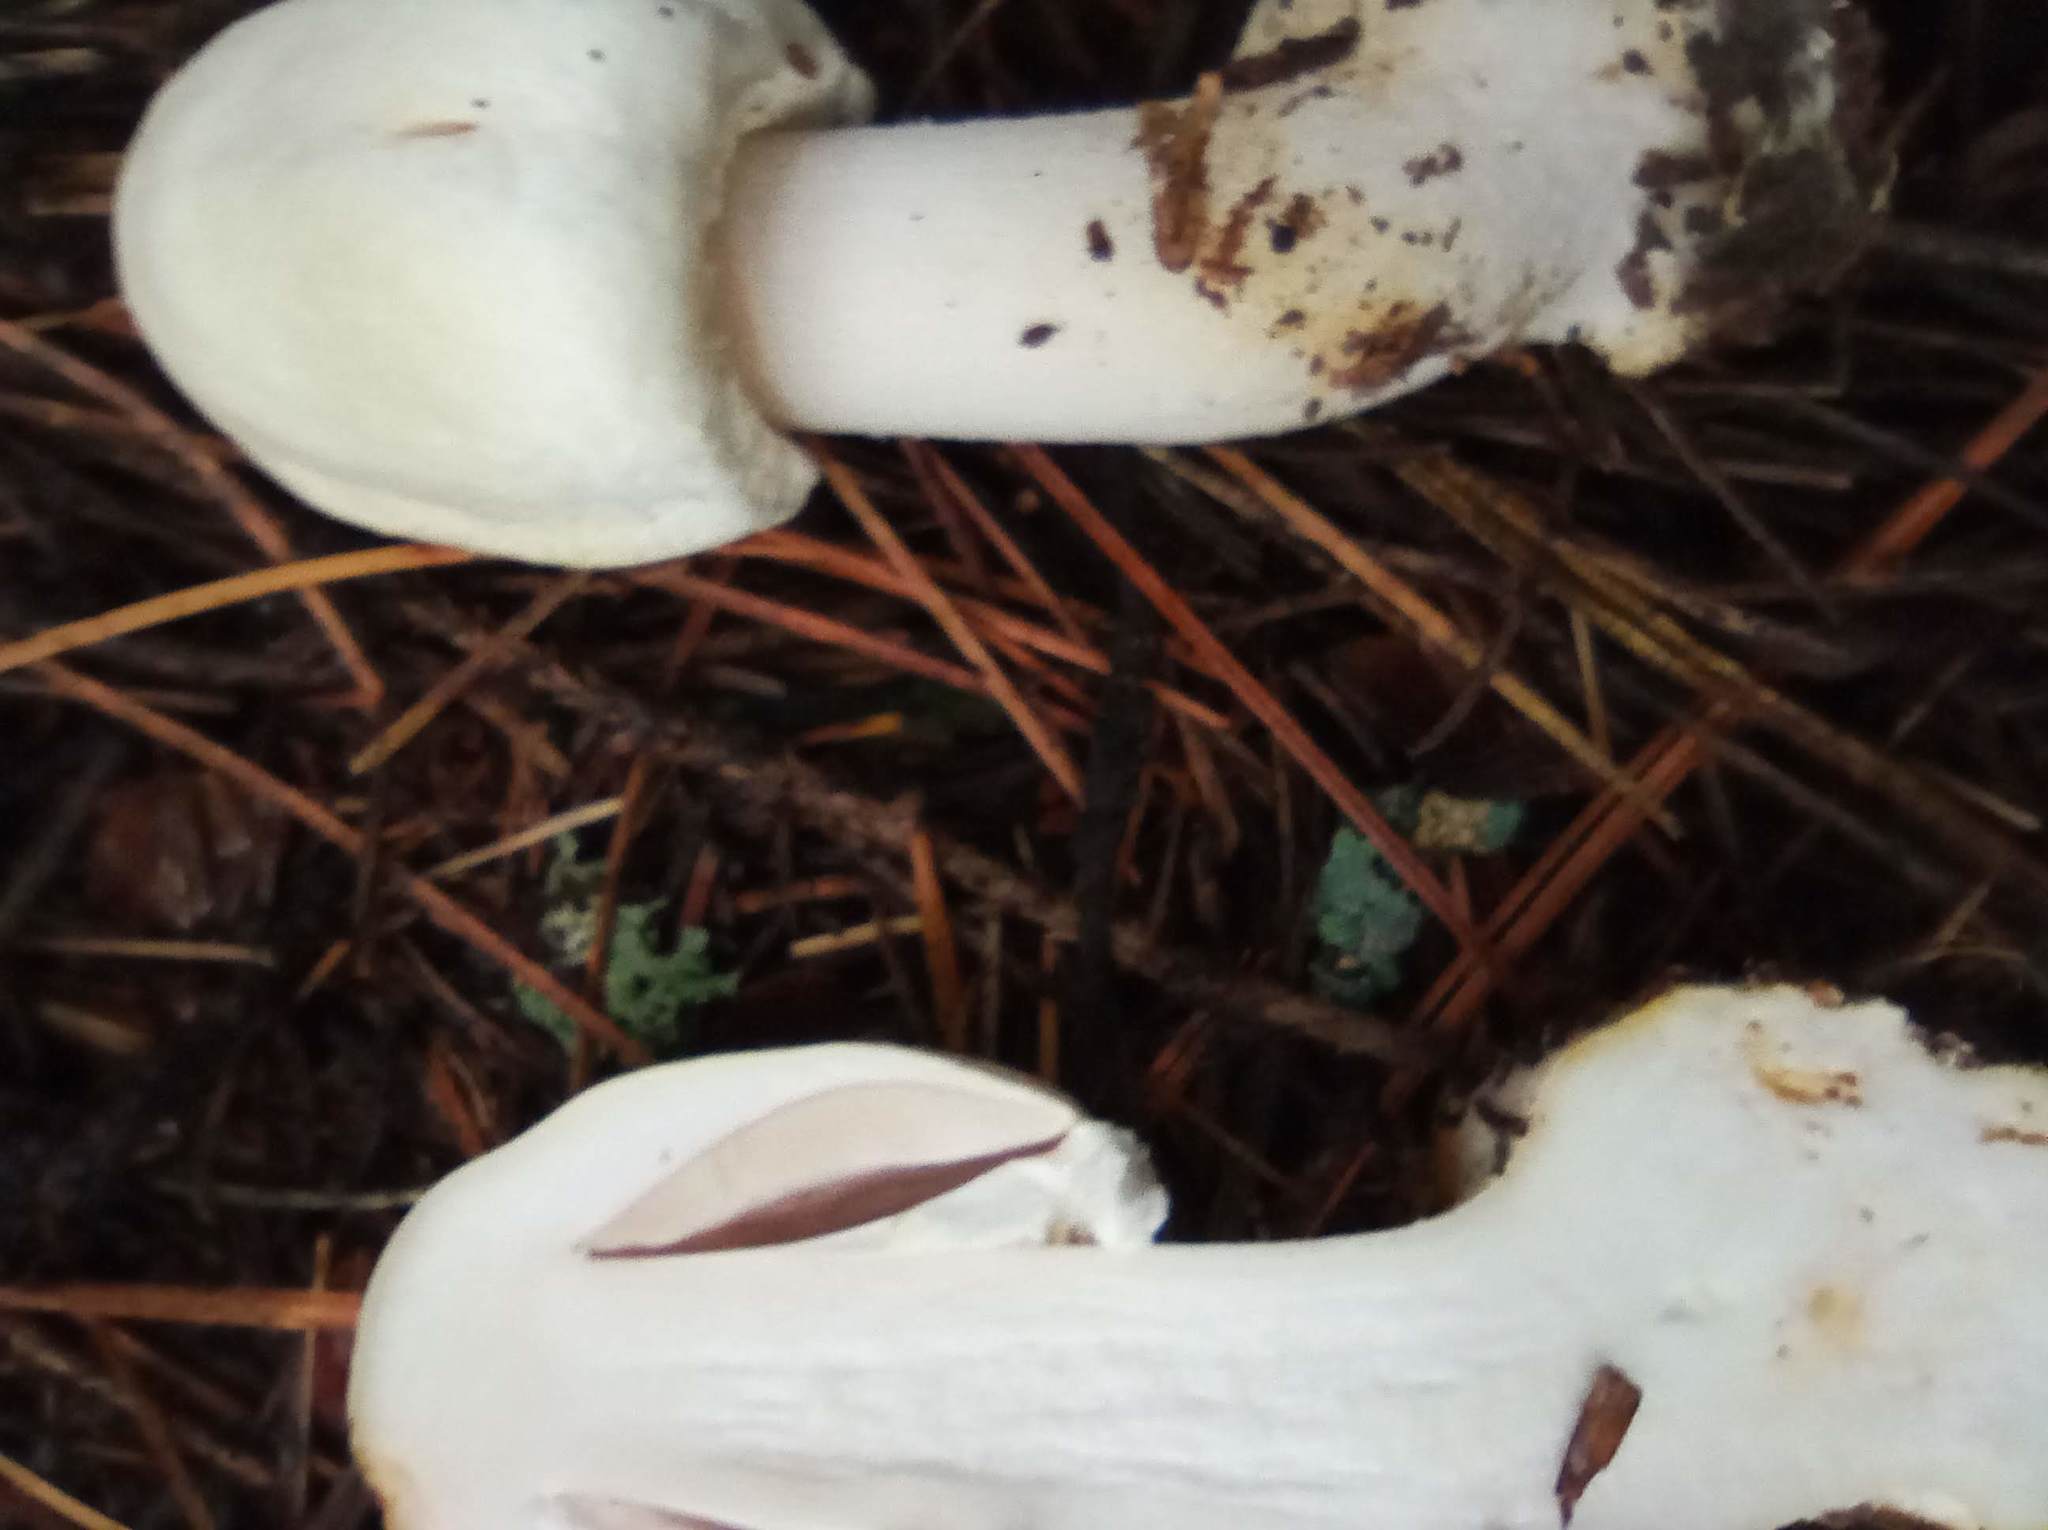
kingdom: Fungi
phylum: Basidiomycota
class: Agaricomycetes
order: Agaricales
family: Agaricaceae
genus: Agaricus
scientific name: Agaricus sylvicola
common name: Wood mushroom
